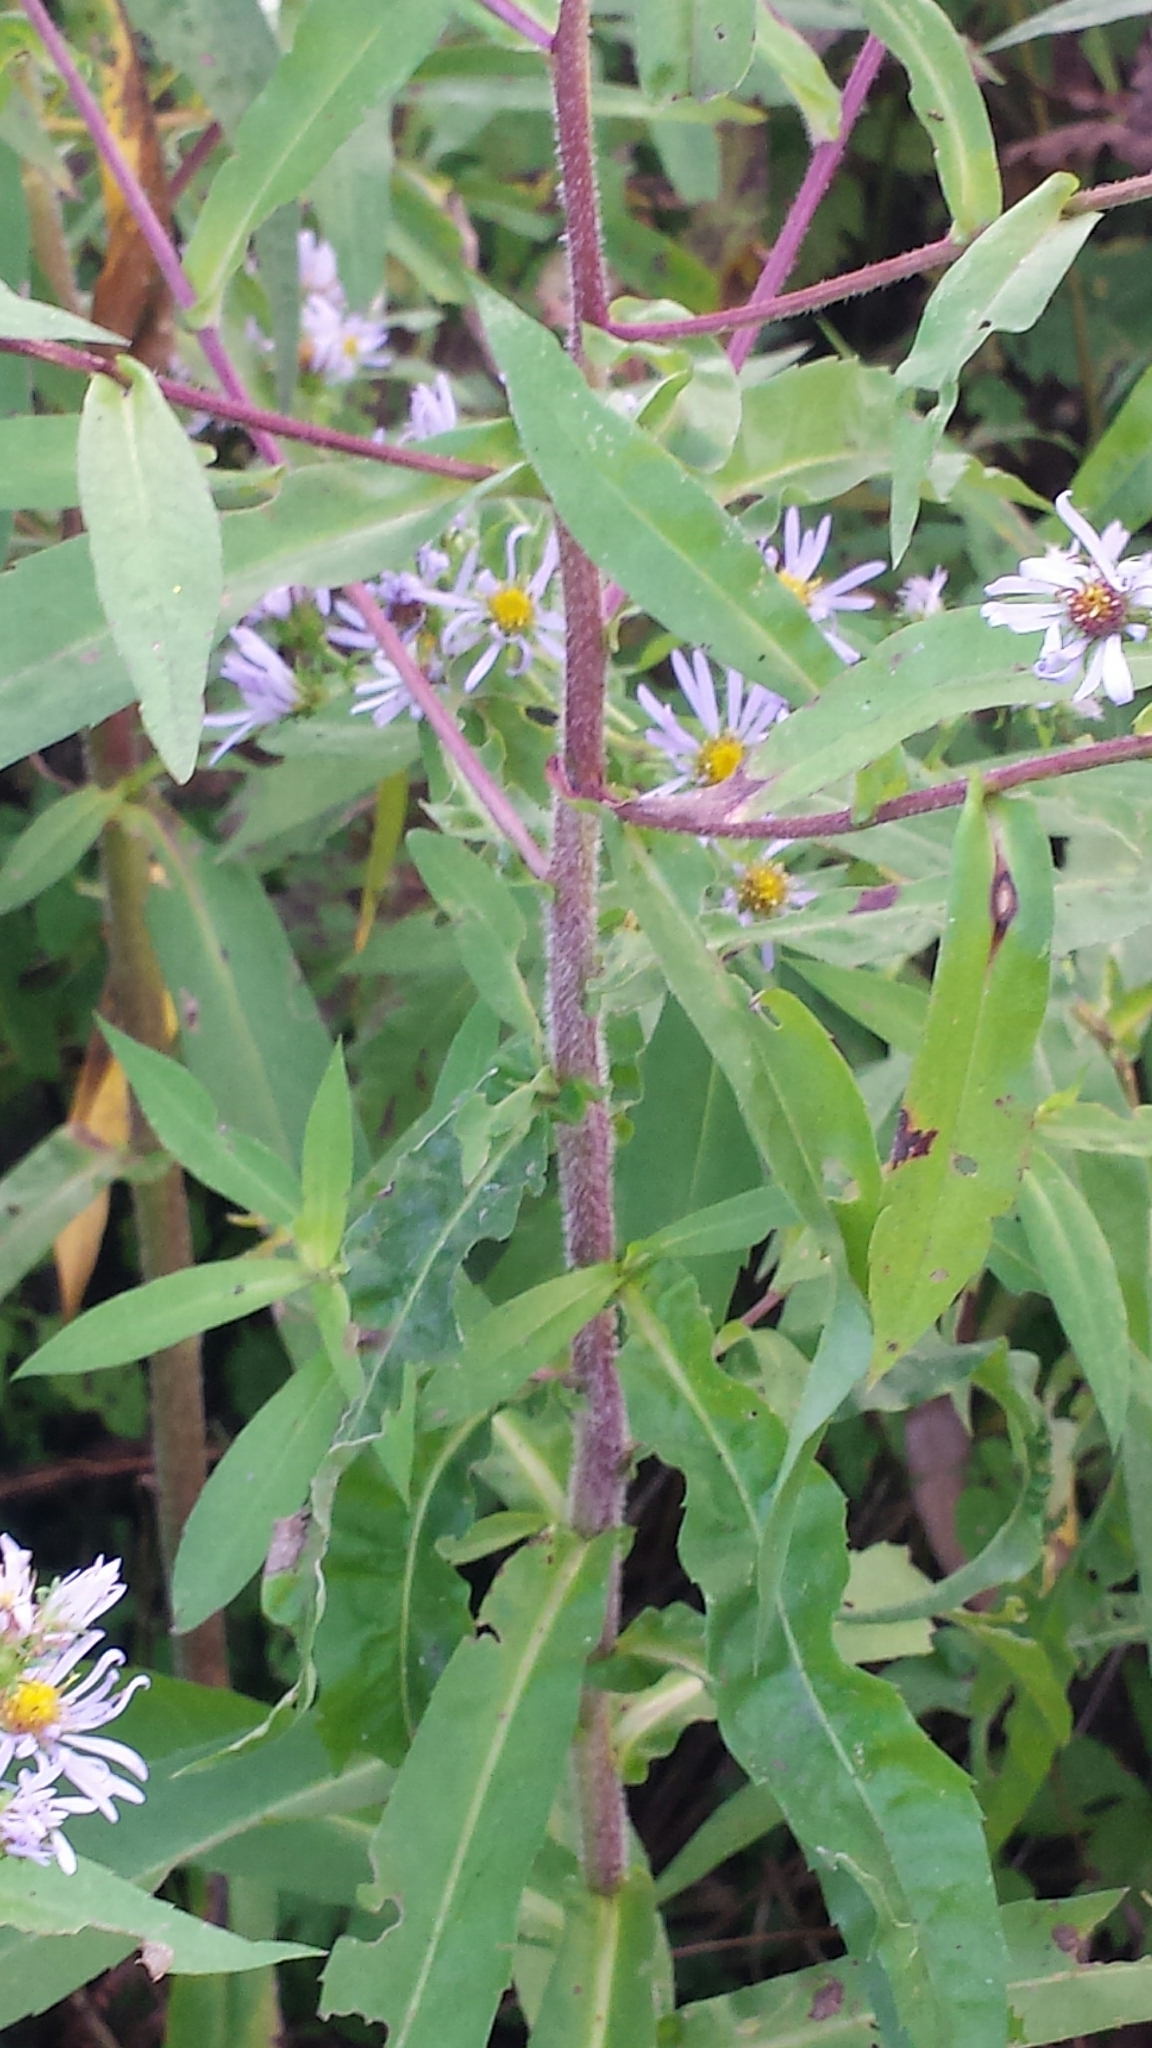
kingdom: Plantae
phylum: Tracheophyta
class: Magnoliopsida
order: Asterales
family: Asteraceae
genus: Symphyotrichum
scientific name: Symphyotrichum puniceum
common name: Bog aster
